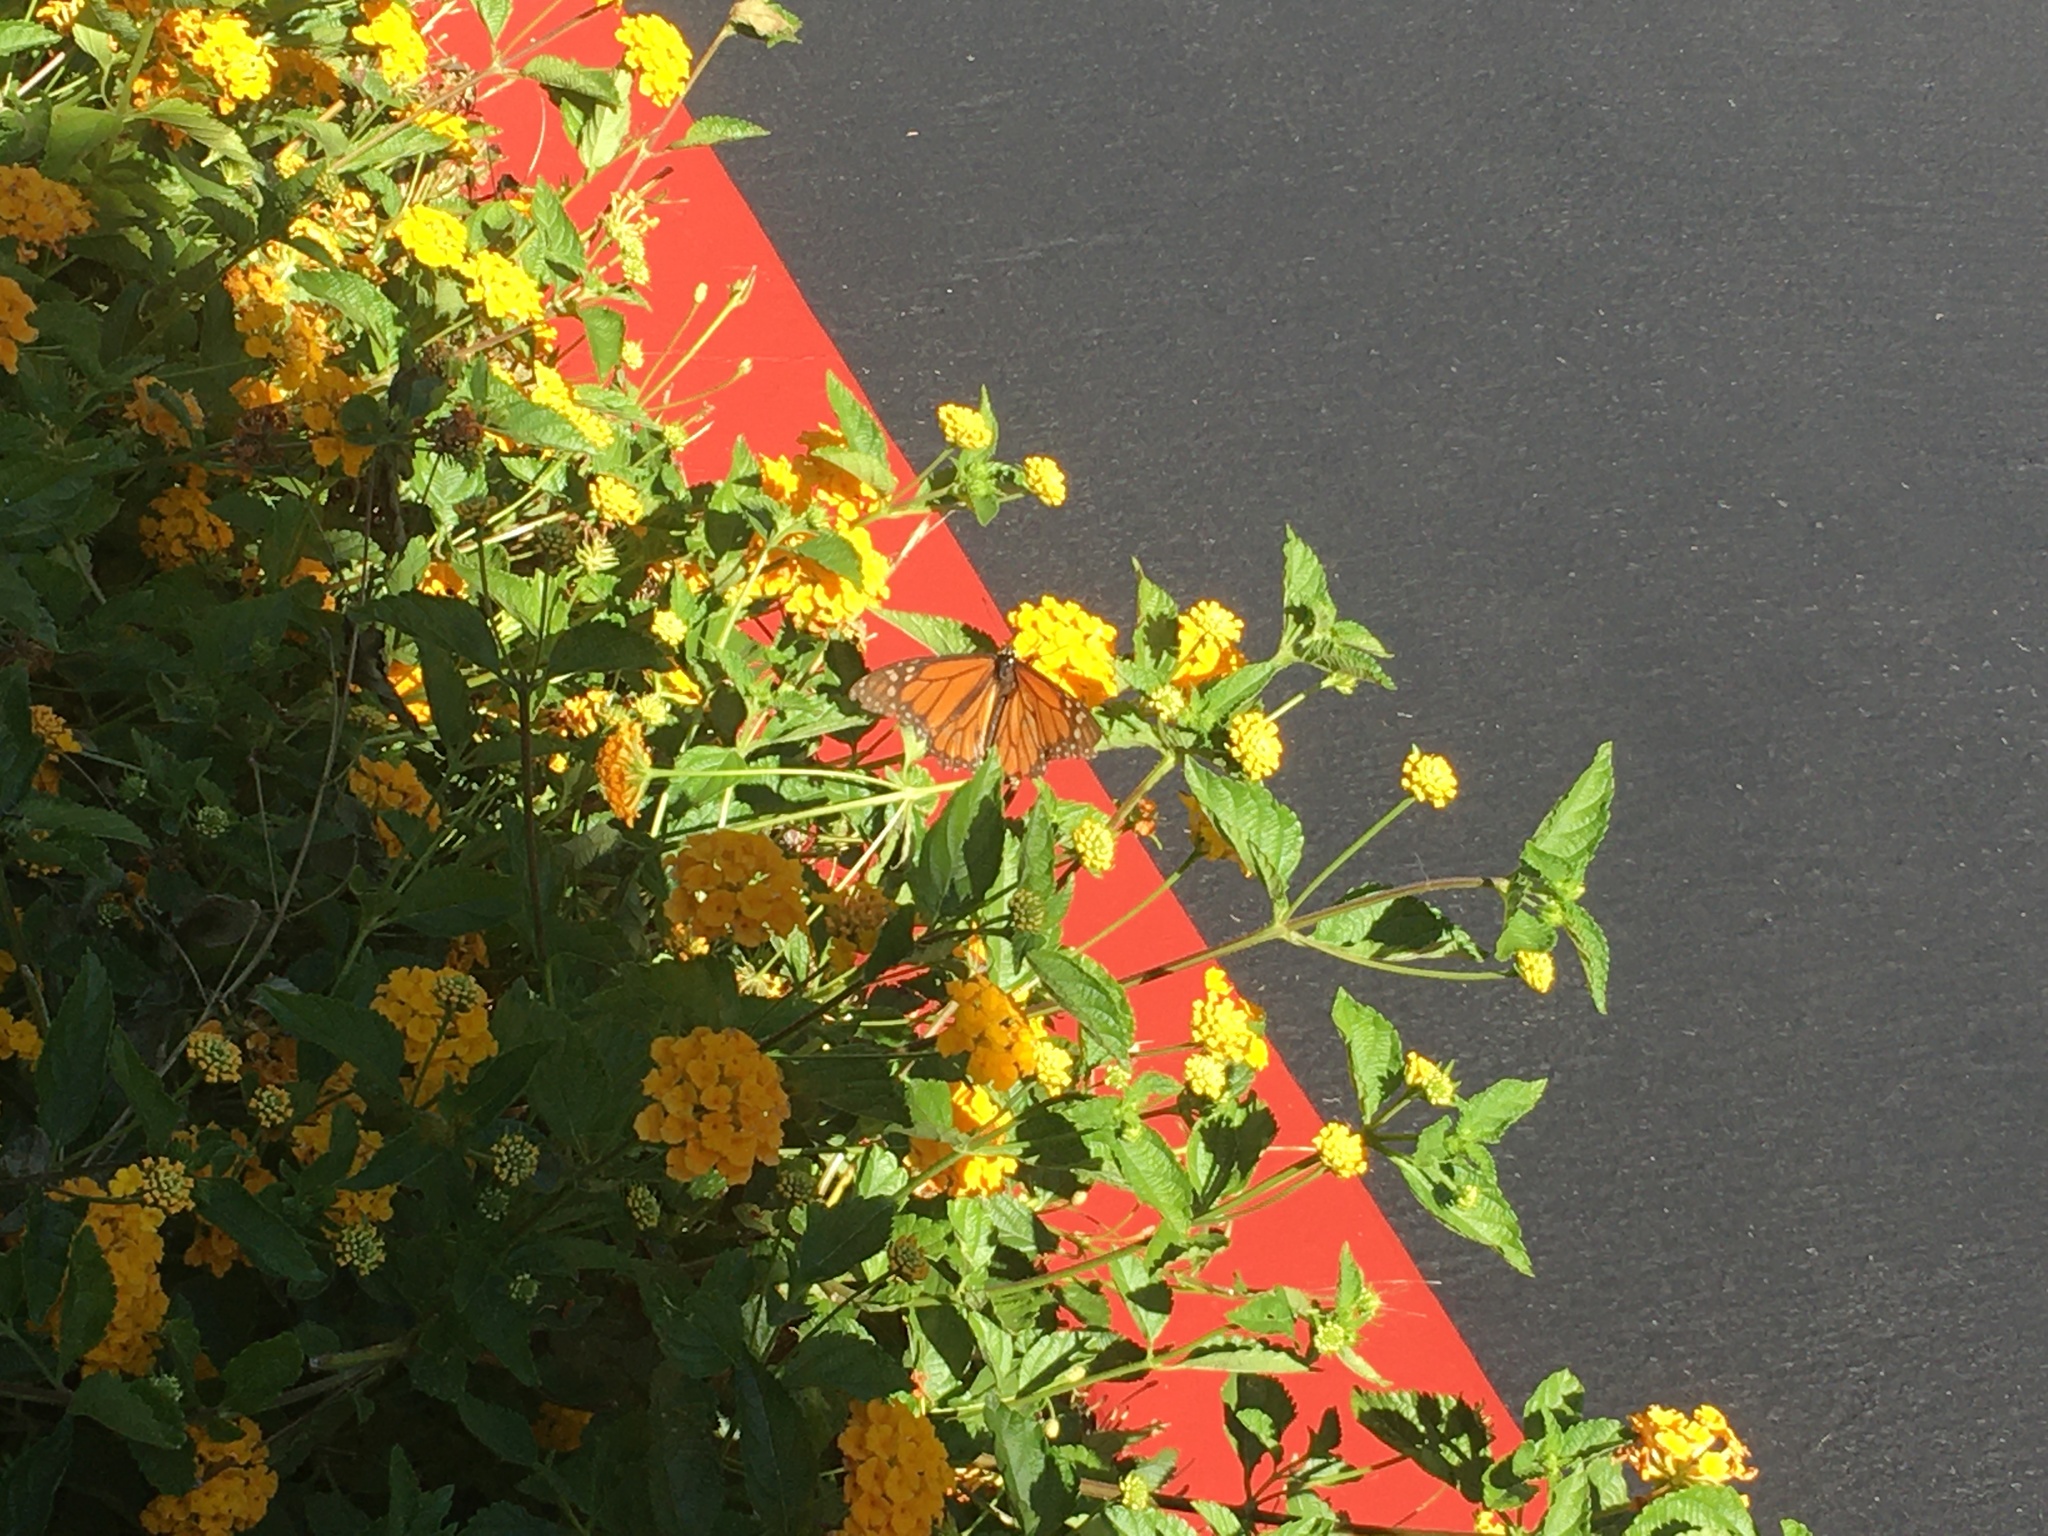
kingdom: Animalia
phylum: Arthropoda
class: Insecta
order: Lepidoptera
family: Nymphalidae
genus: Danaus
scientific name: Danaus plexippus
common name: Monarch
